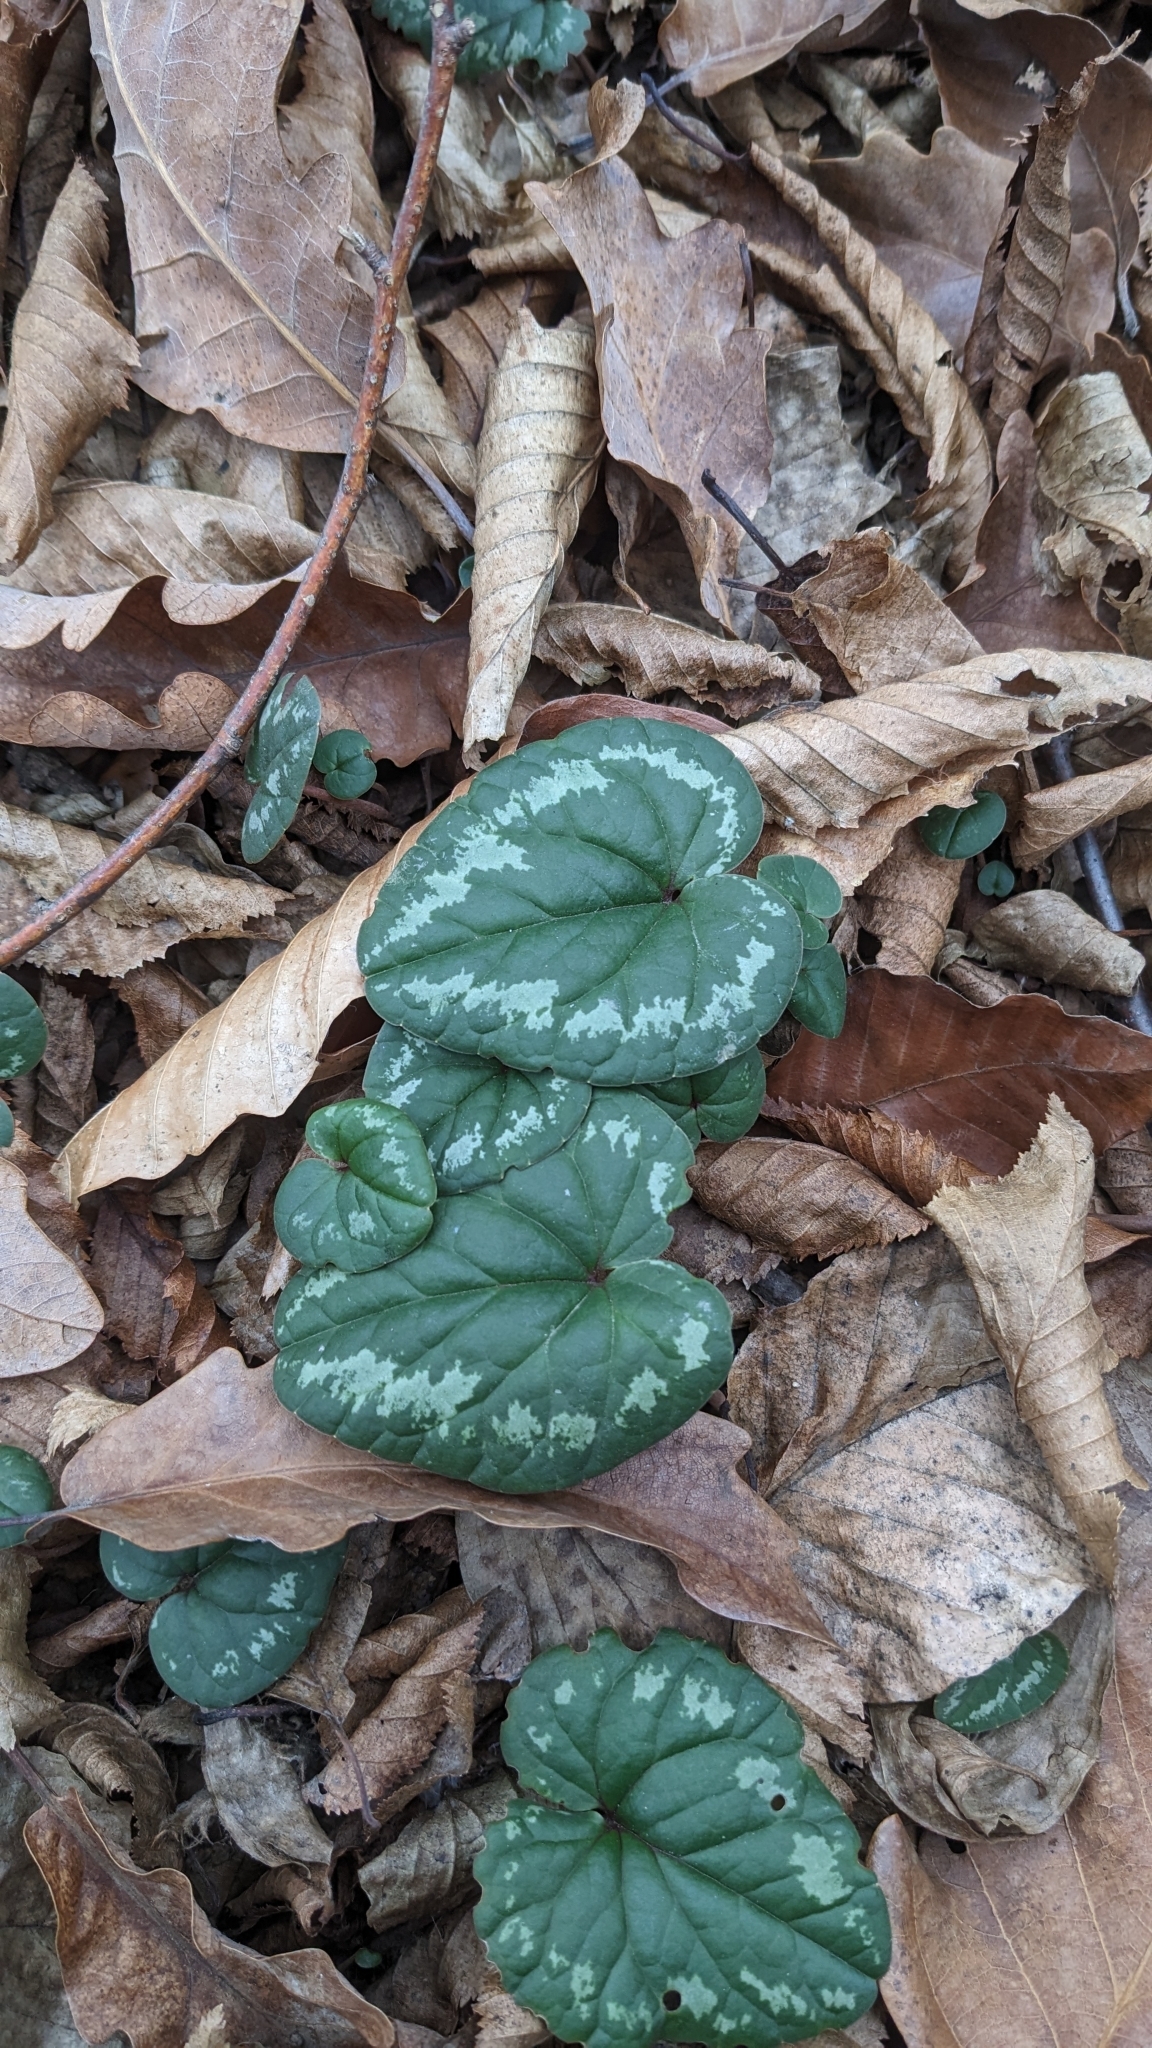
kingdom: Plantae
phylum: Tracheophyta
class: Magnoliopsida
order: Ericales
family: Primulaceae
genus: Cyclamen
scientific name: Cyclamen coum
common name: Eastern sowbread
